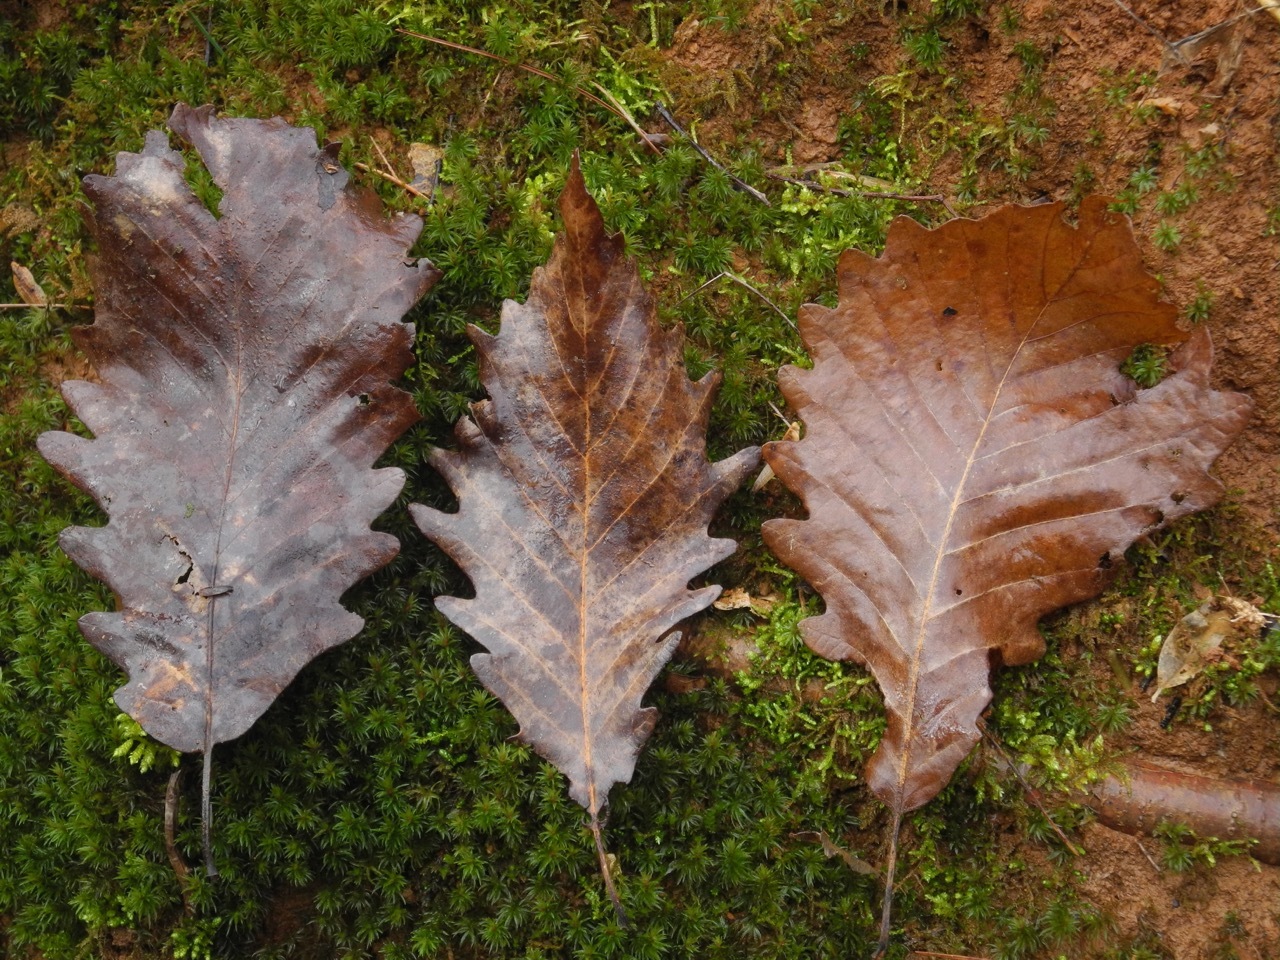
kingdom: Plantae
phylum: Tracheophyta
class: Magnoliopsida
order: Fagales
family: Fagaceae
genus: Quercus
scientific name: Quercus michauxii
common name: Swamp chestnut oak
